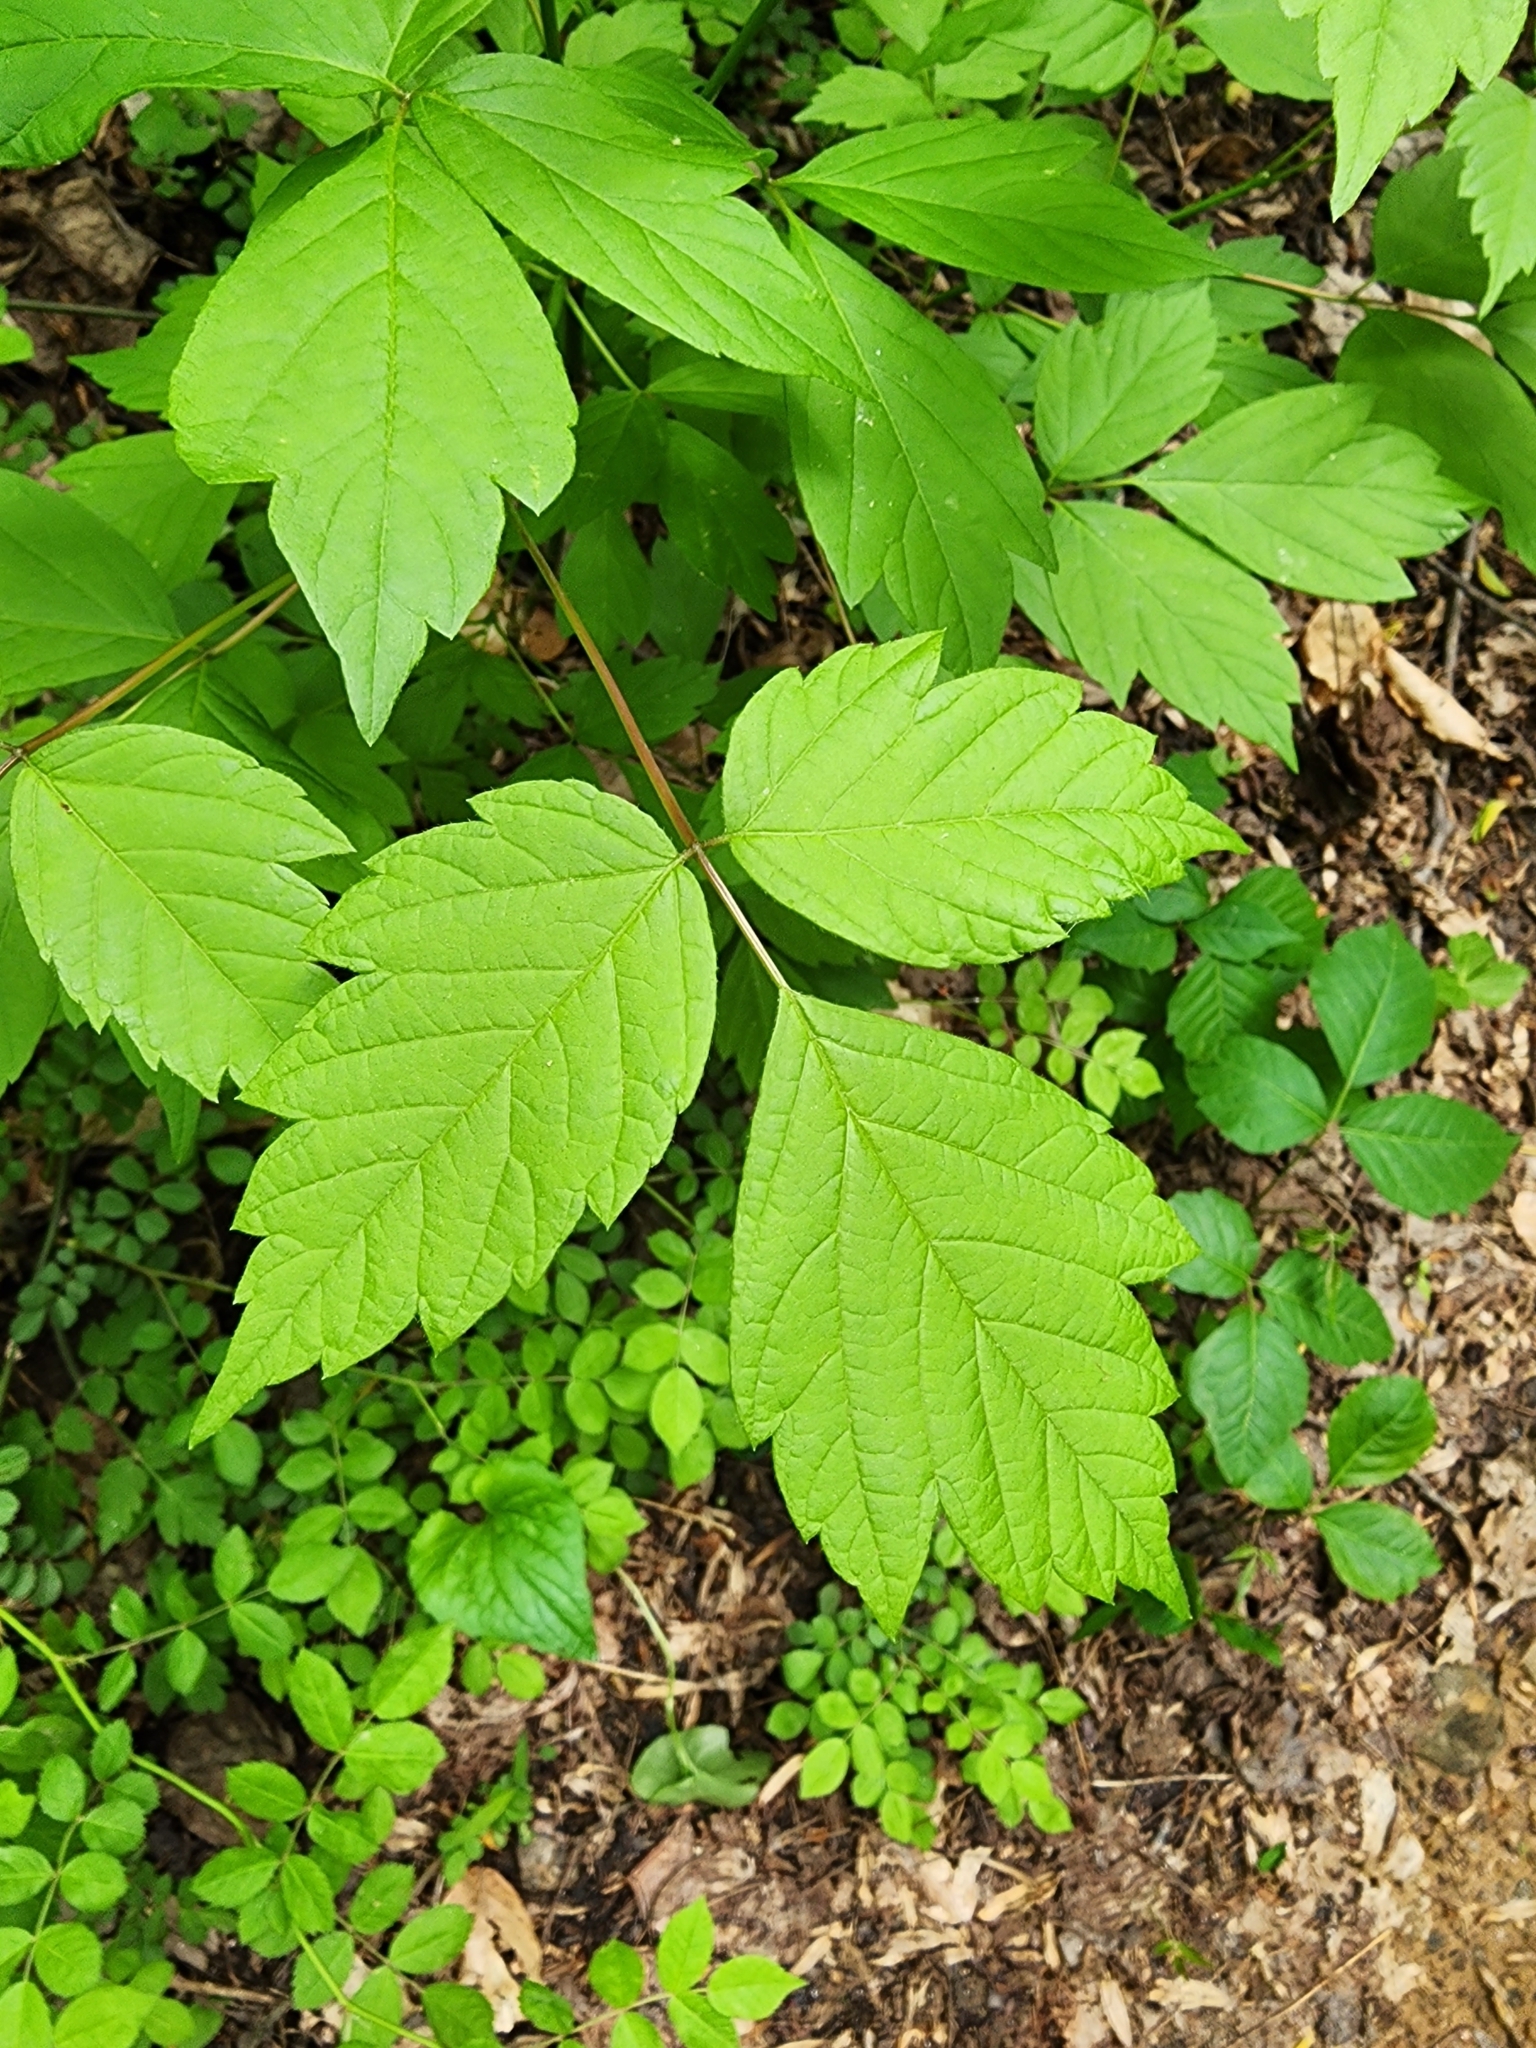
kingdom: Plantae
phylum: Tracheophyta
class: Magnoliopsida
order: Sapindales
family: Sapindaceae
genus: Acer
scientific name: Acer negundo
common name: Ashleaf maple
